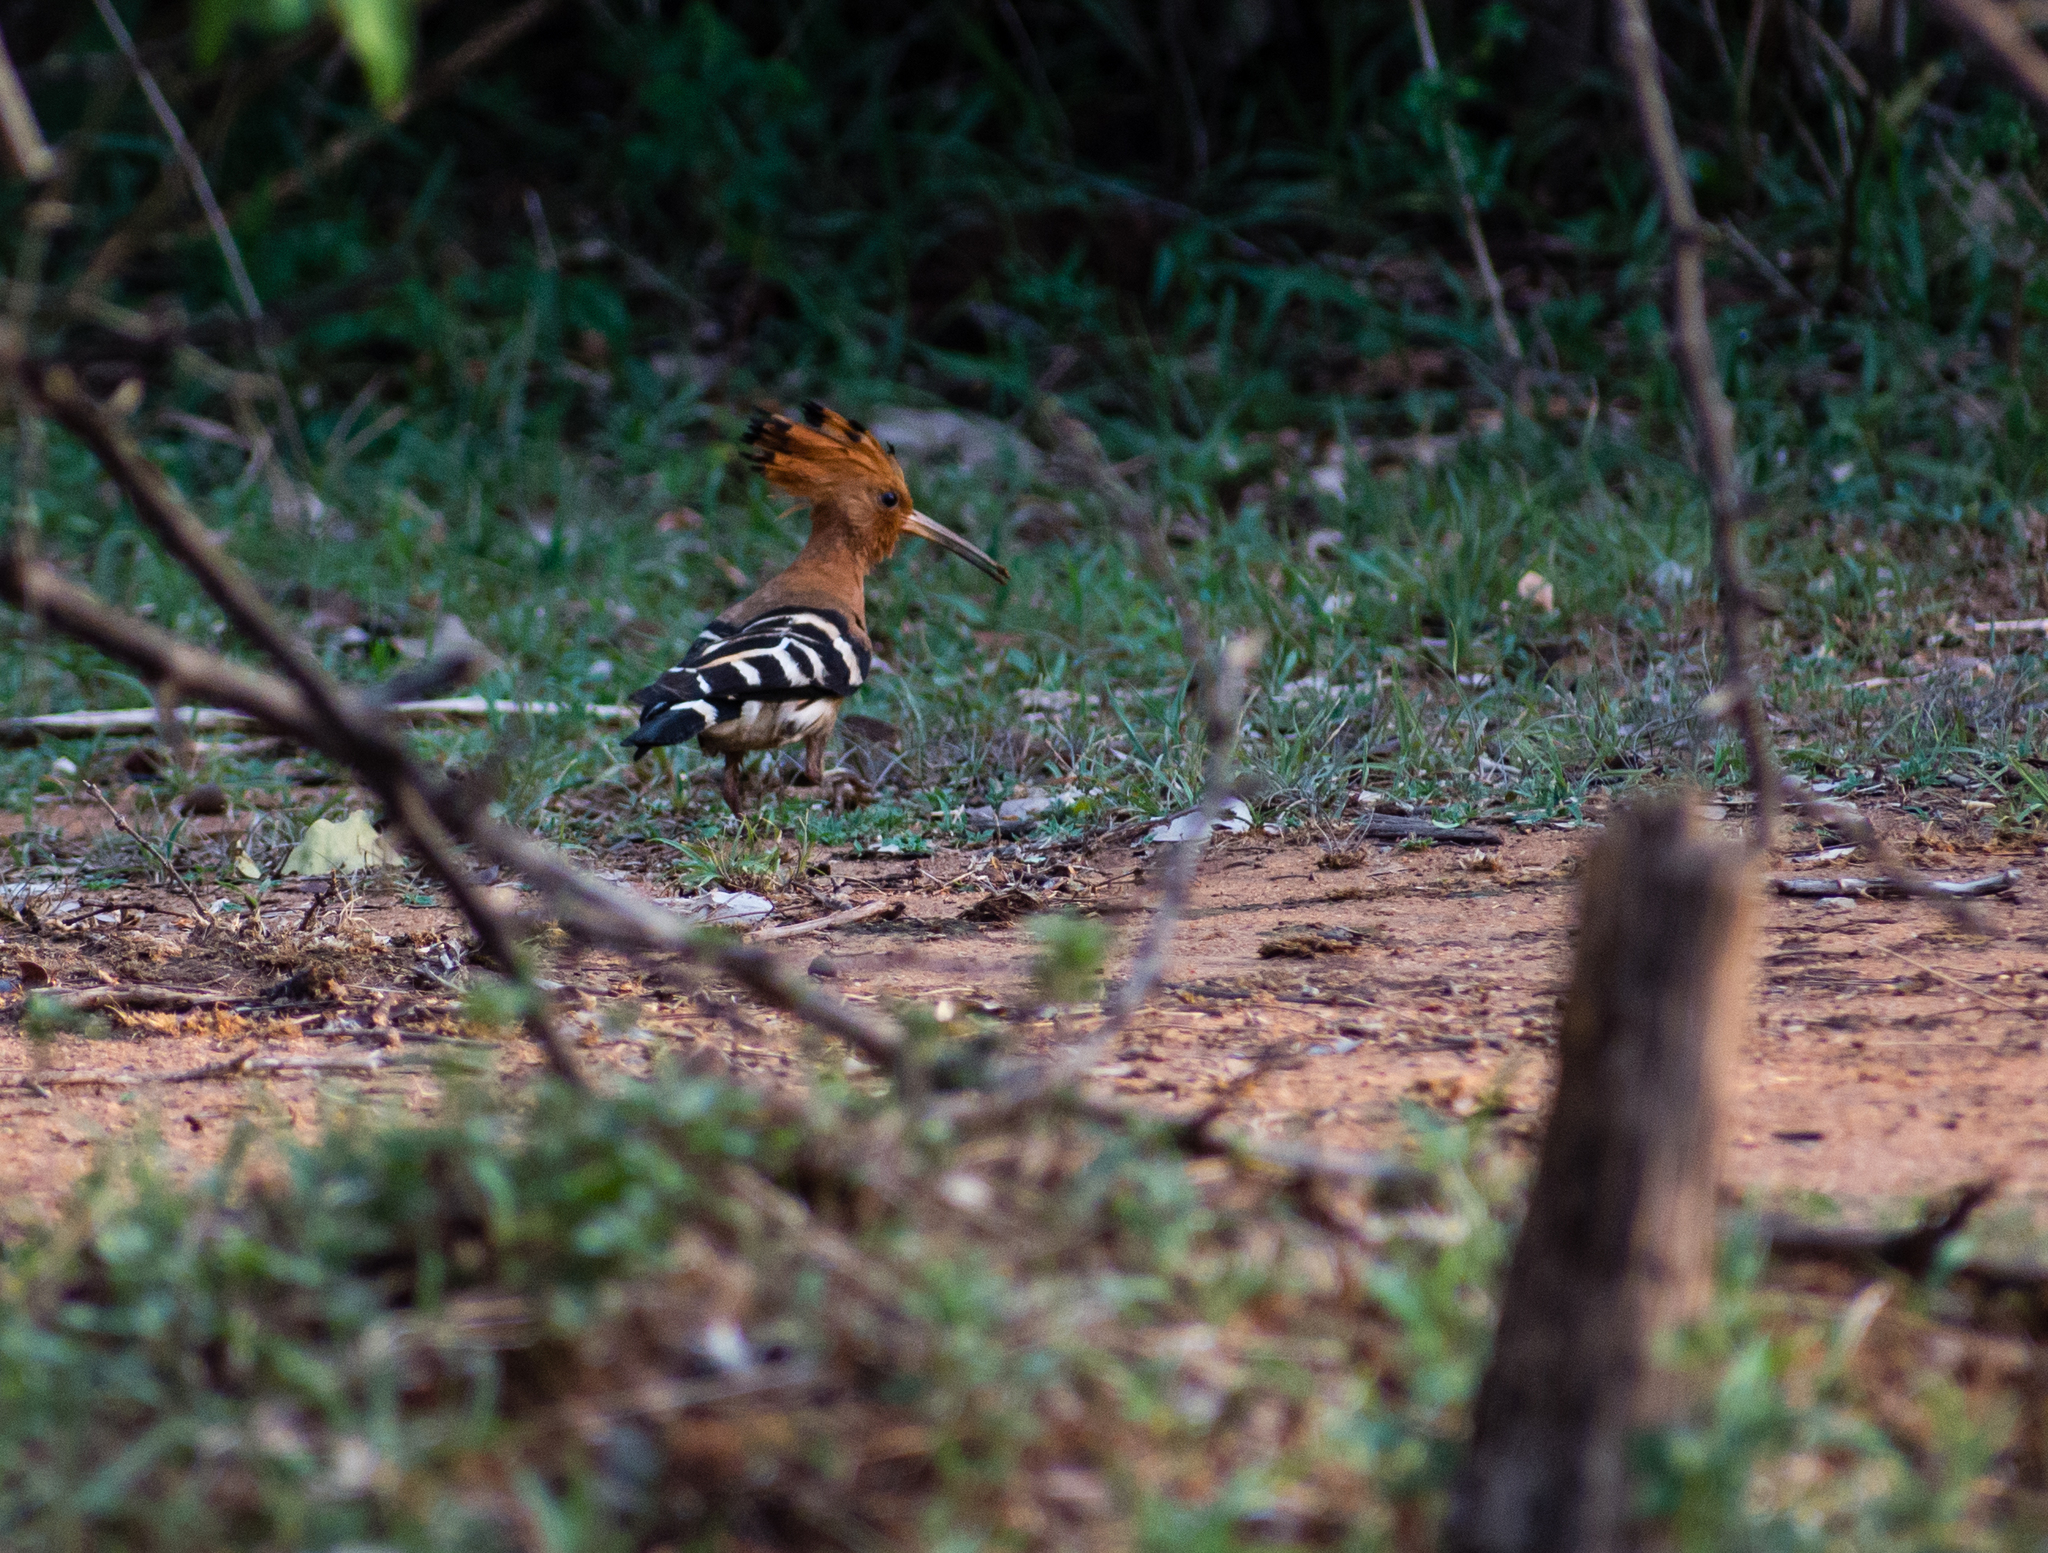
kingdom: Animalia
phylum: Chordata
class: Aves
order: Bucerotiformes
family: Upupidae
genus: Upupa
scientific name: Upupa epops
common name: Eurasian hoopoe
